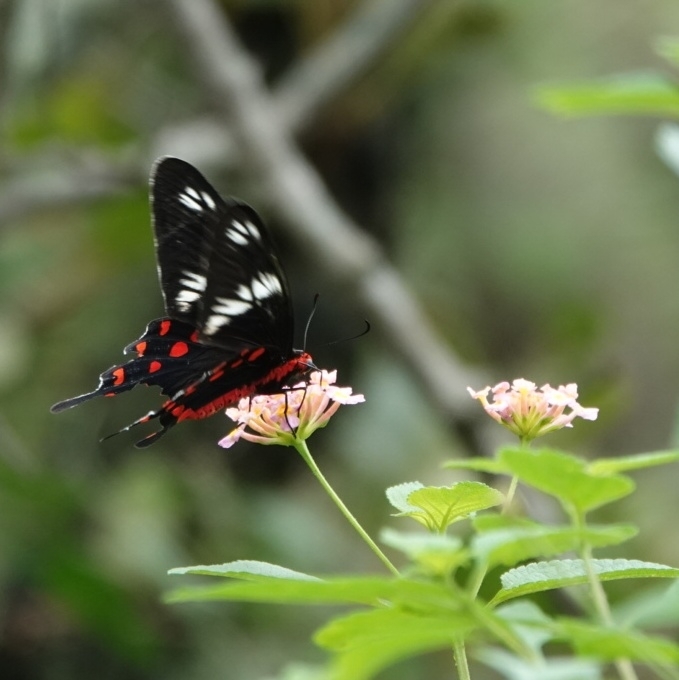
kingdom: Animalia
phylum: Arthropoda
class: Insecta
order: Lepidoptera
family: Papilionidae
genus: Pachliopta
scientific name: Pachliopta hector
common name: Crimson rose
